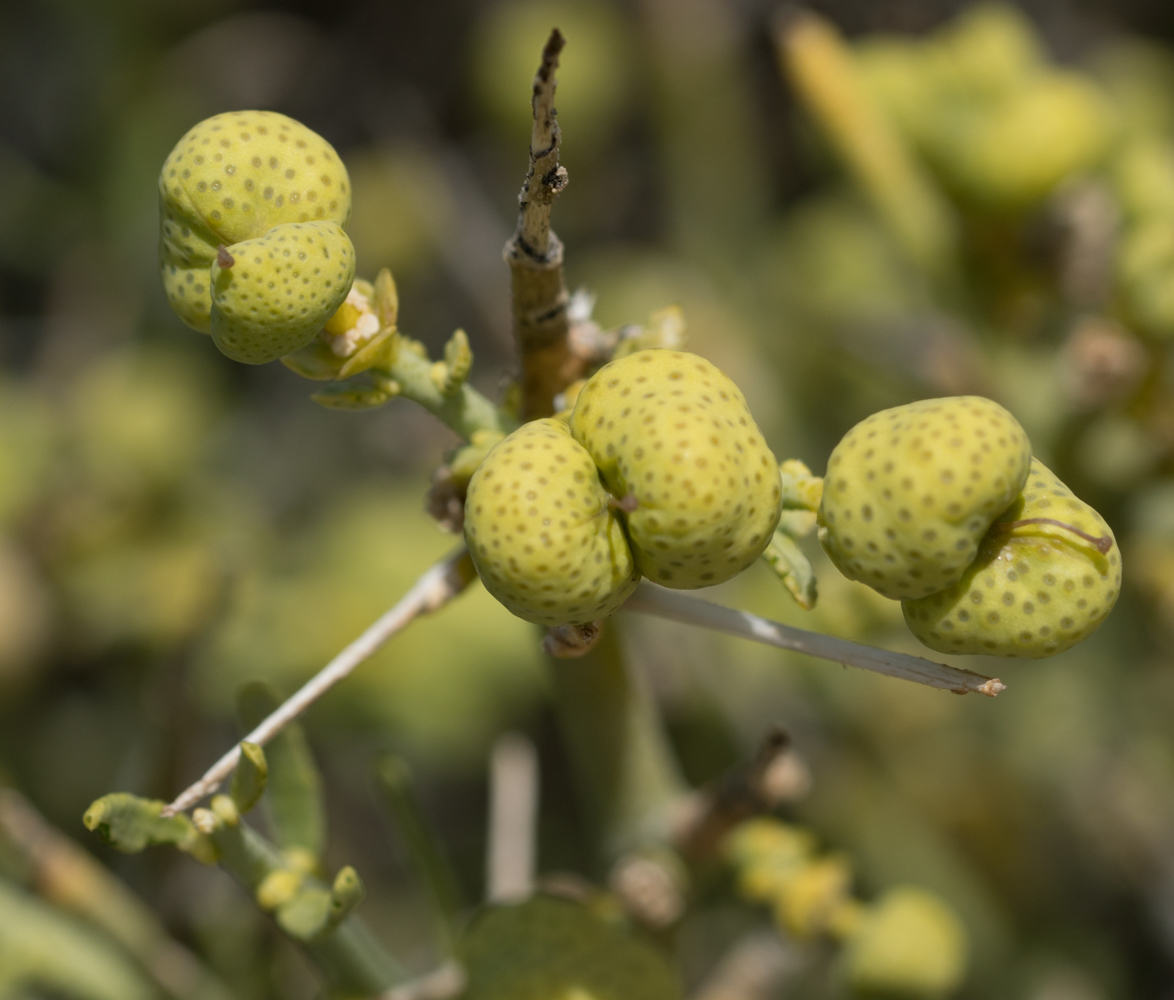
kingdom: Plantae
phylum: Tracheophyta
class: Magnoliopsida
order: Sapindales
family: Rutaceae
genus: Thamnosma
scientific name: Thamnosma montana
